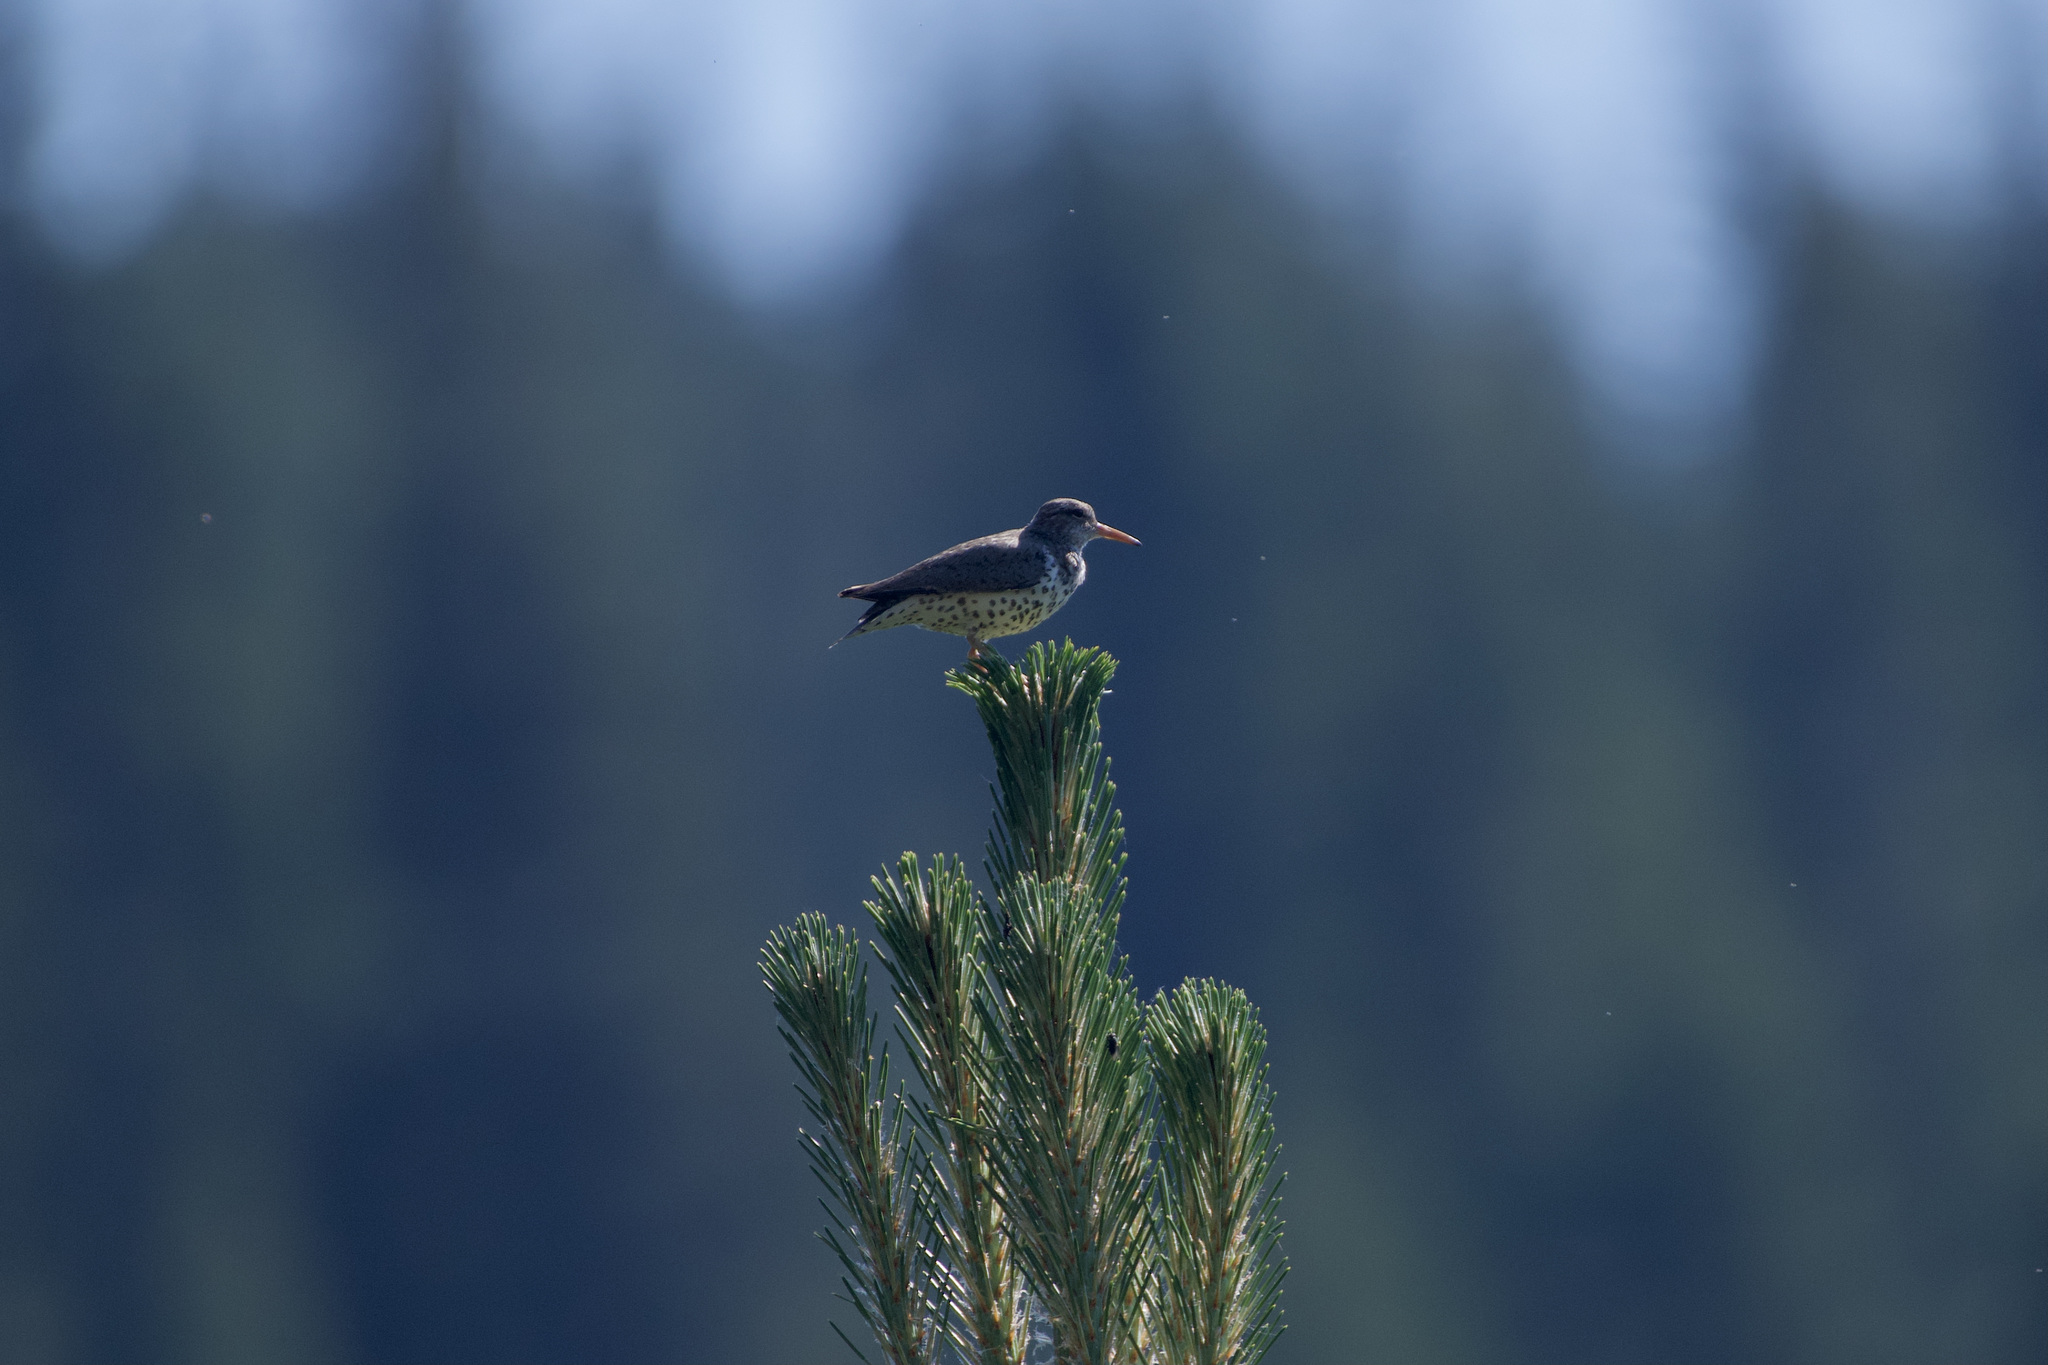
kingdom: Animalia
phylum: Chordata
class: Aves
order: Charadriiformes
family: Scolopacidae
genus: Actitis
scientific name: Actitis macularius
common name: Spotted sandpiper
